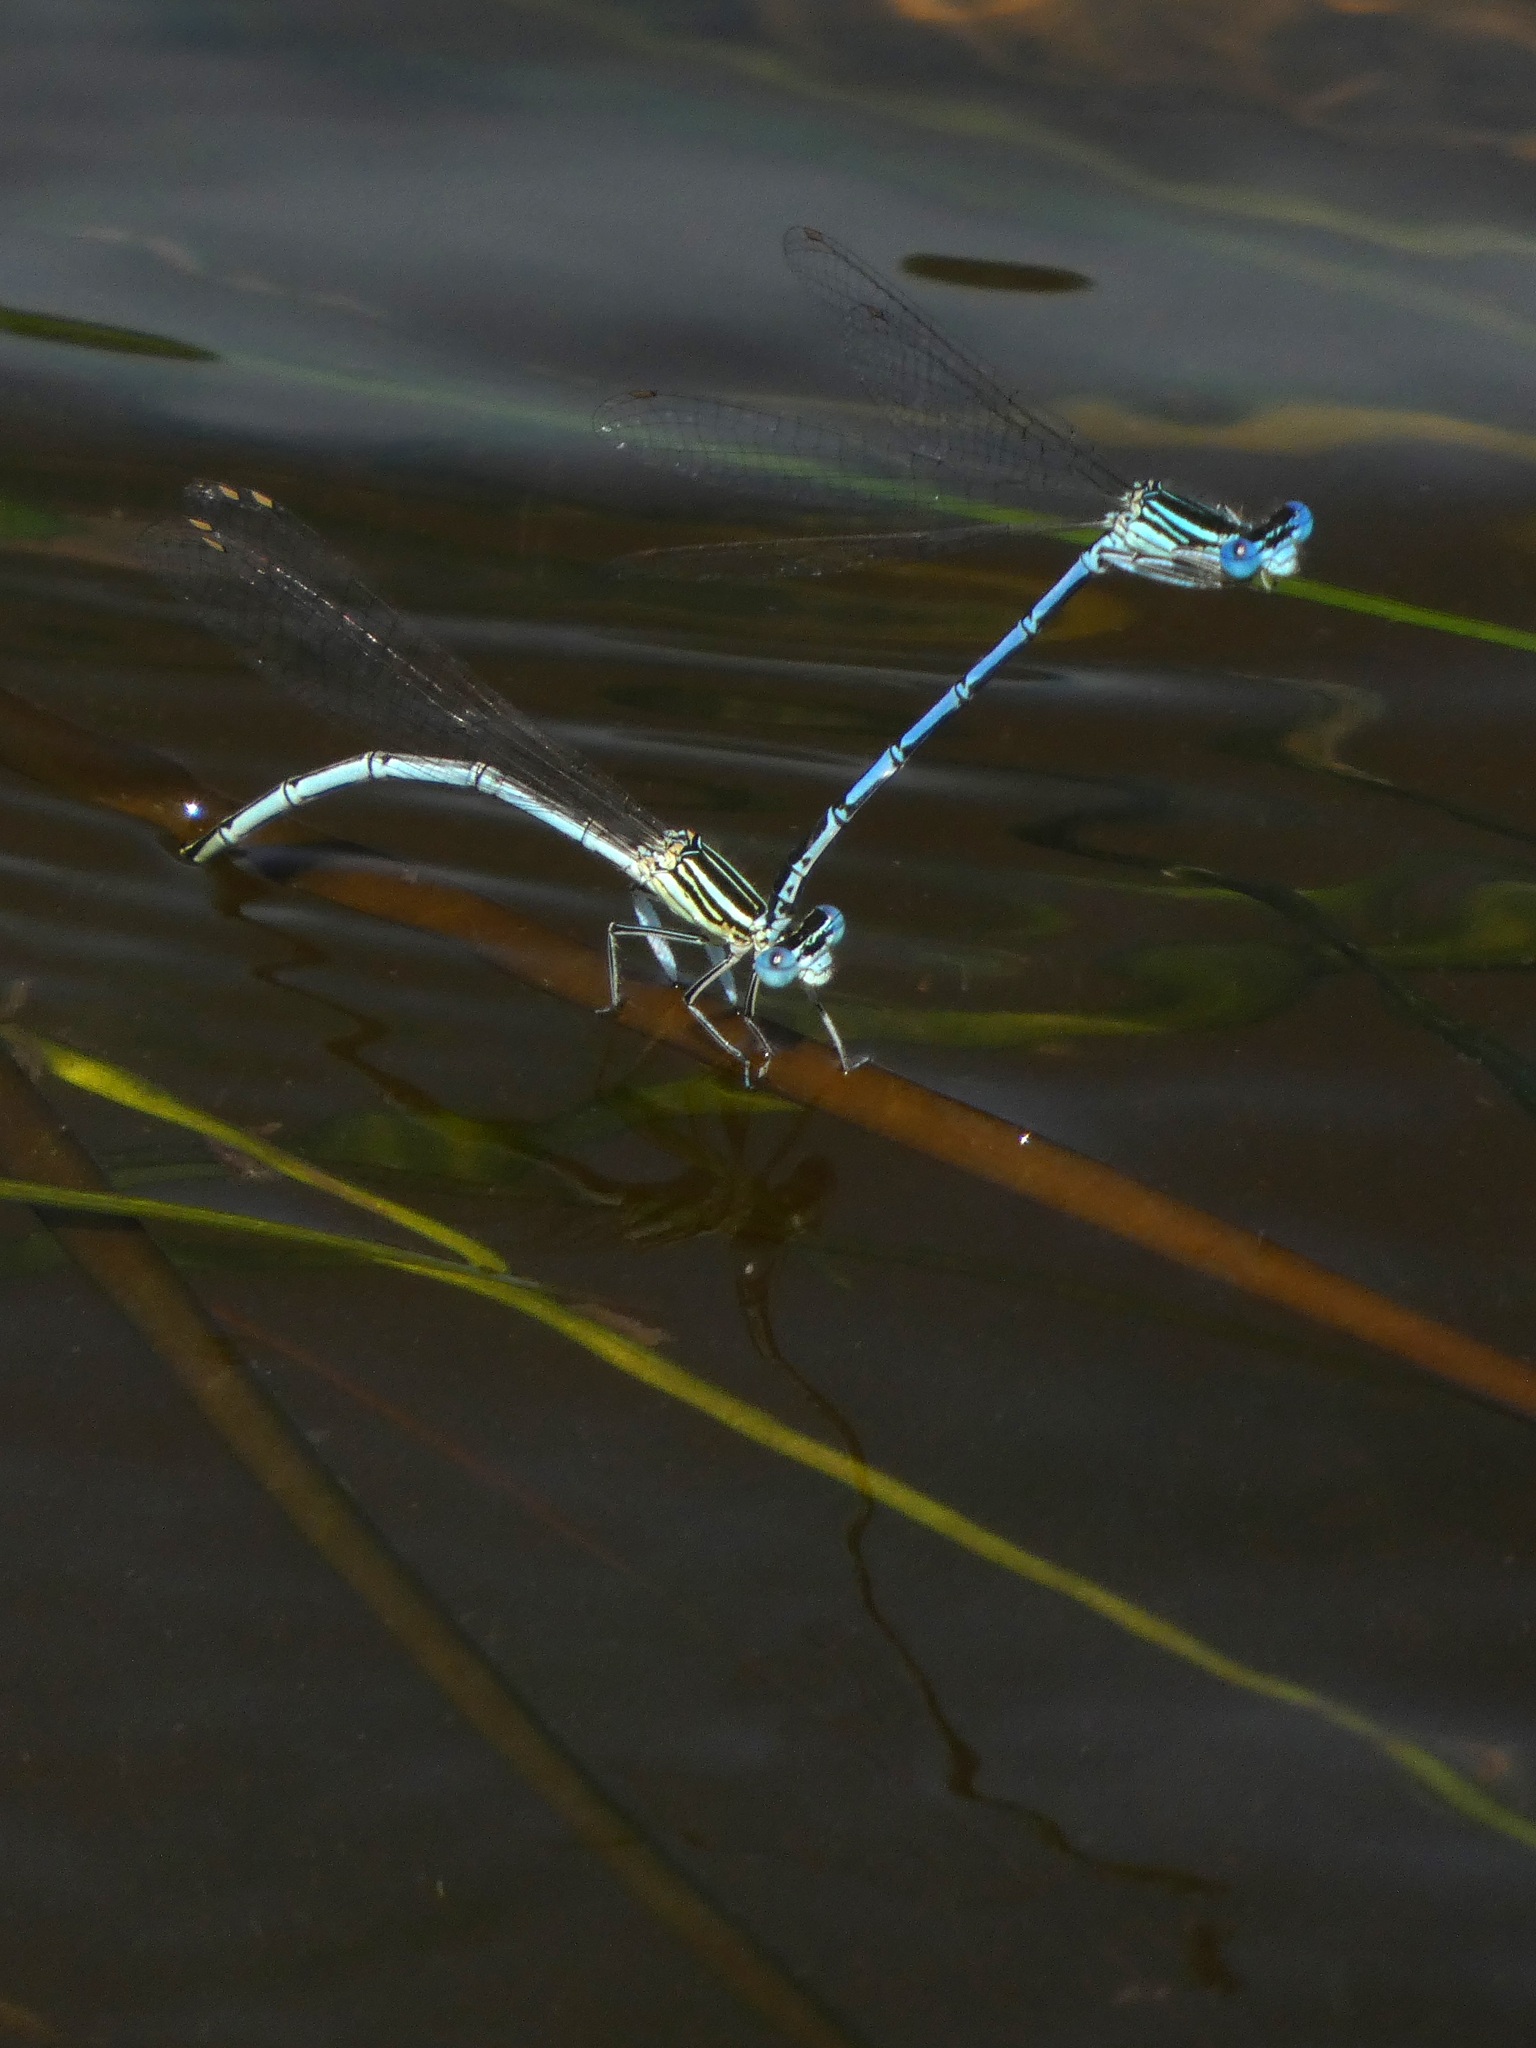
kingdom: Animalia
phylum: Arthropoda
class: Insecta
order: Odonata
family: Platycnemididae
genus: Platycnemis
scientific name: Platycnemis pennipes
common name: White-legged damselfly
